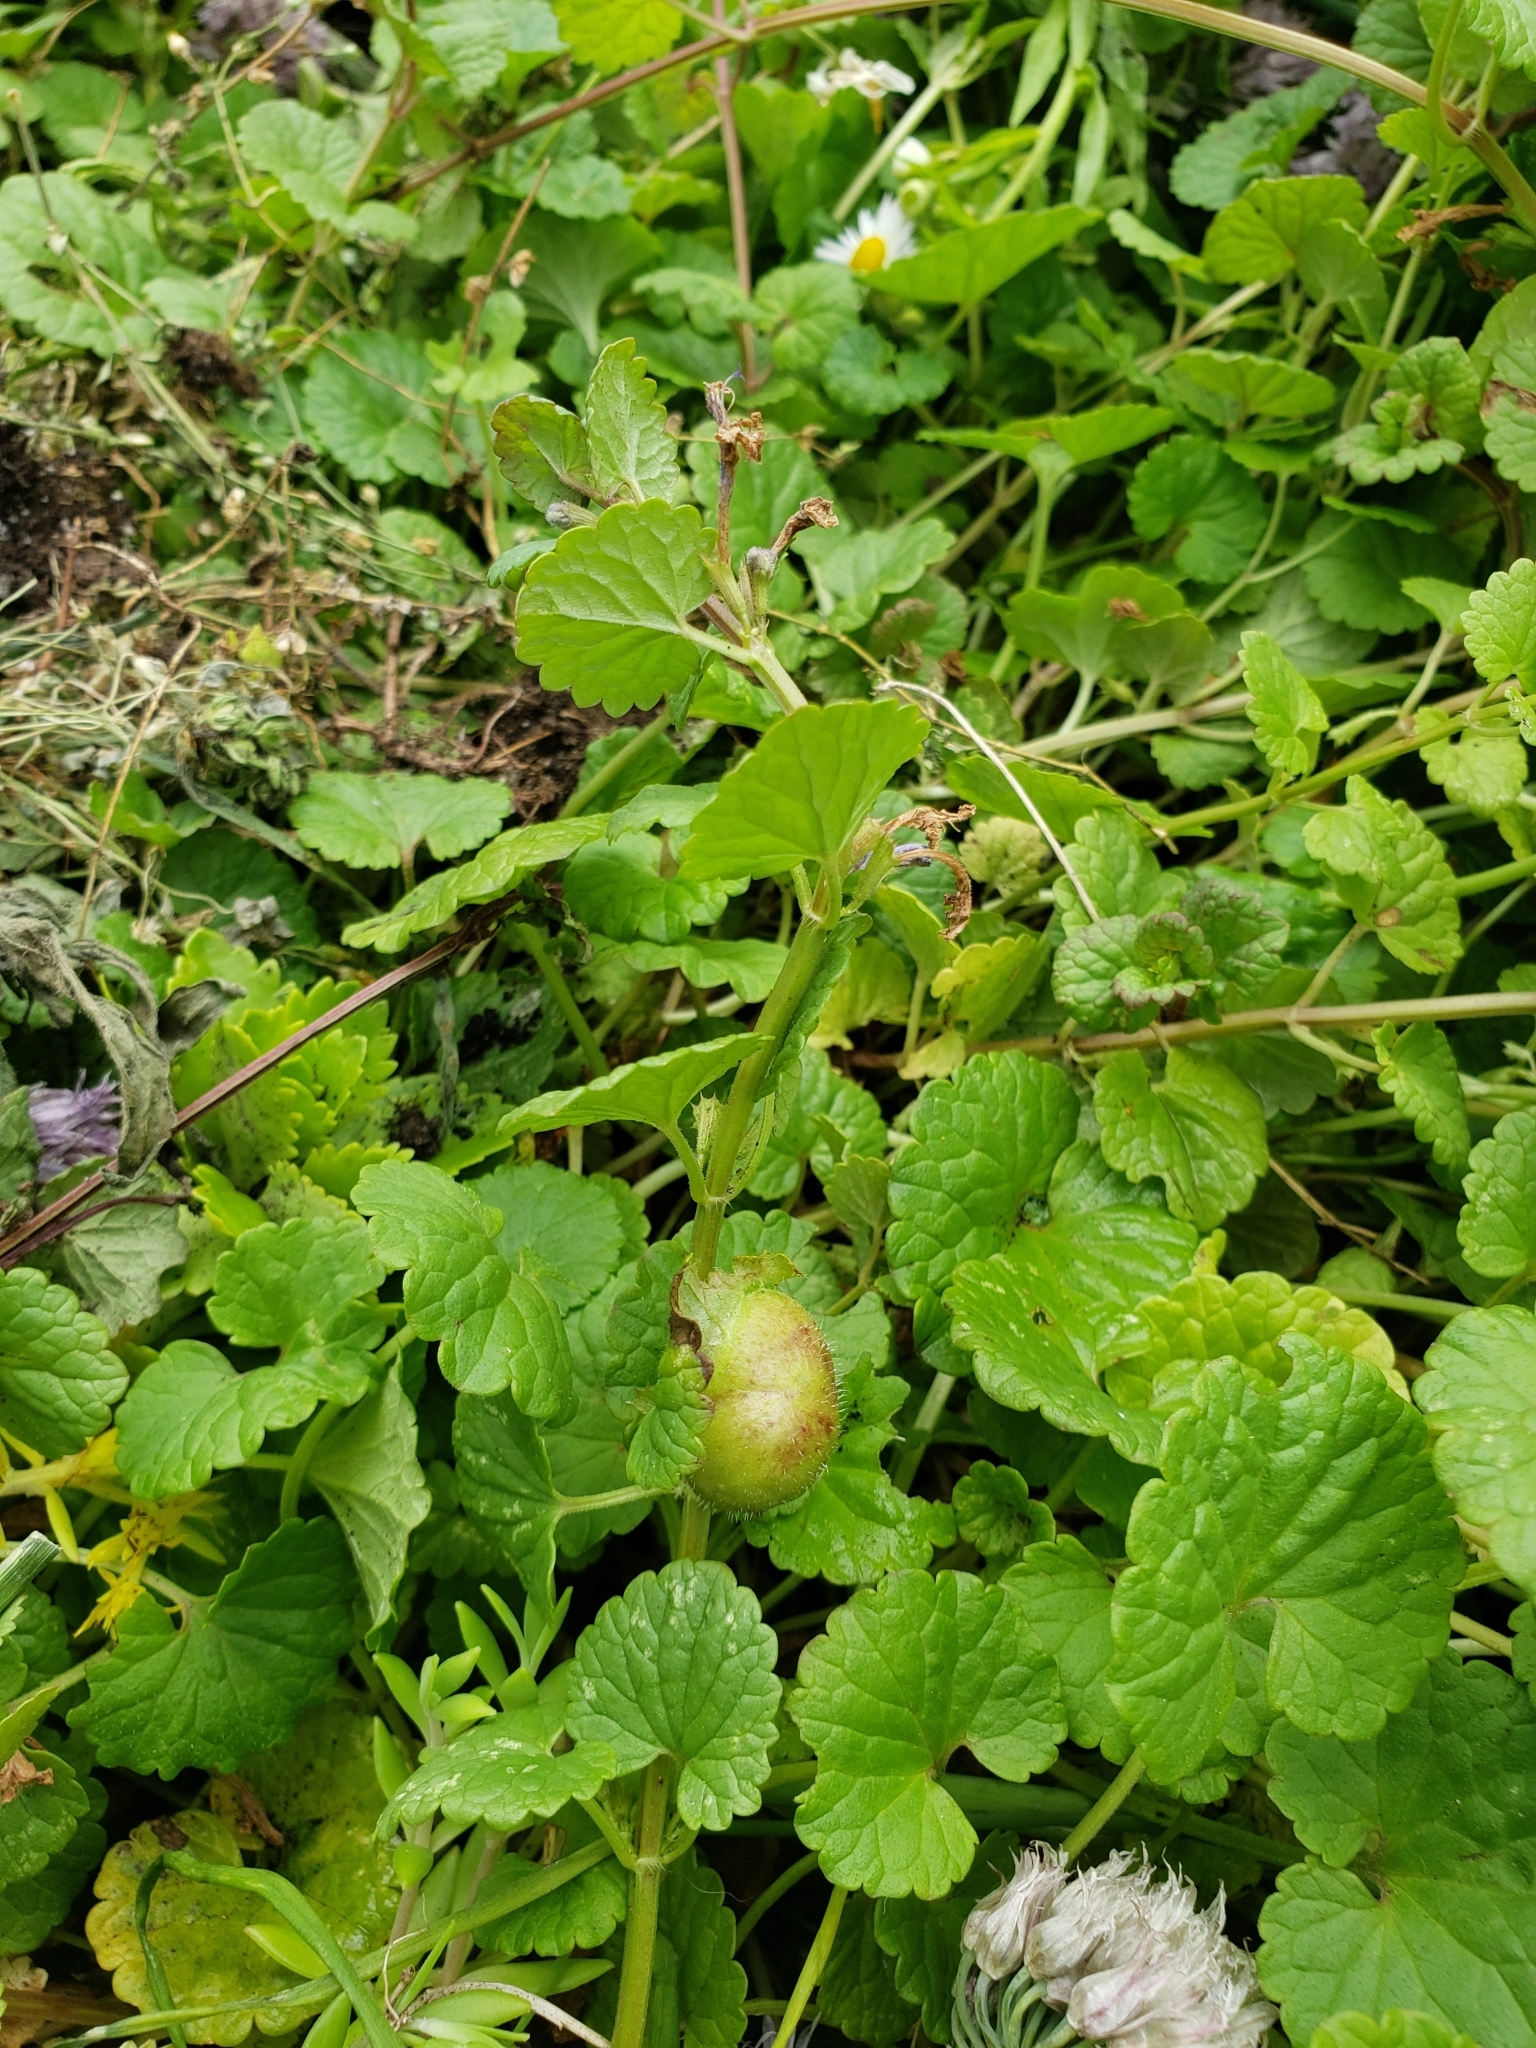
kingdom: Animalia
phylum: Arthropoda
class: Insecta
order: Hymenoptera
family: Cynipidae
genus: Liposthenes
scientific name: Liposthenes glechomae
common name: Gall wasp
